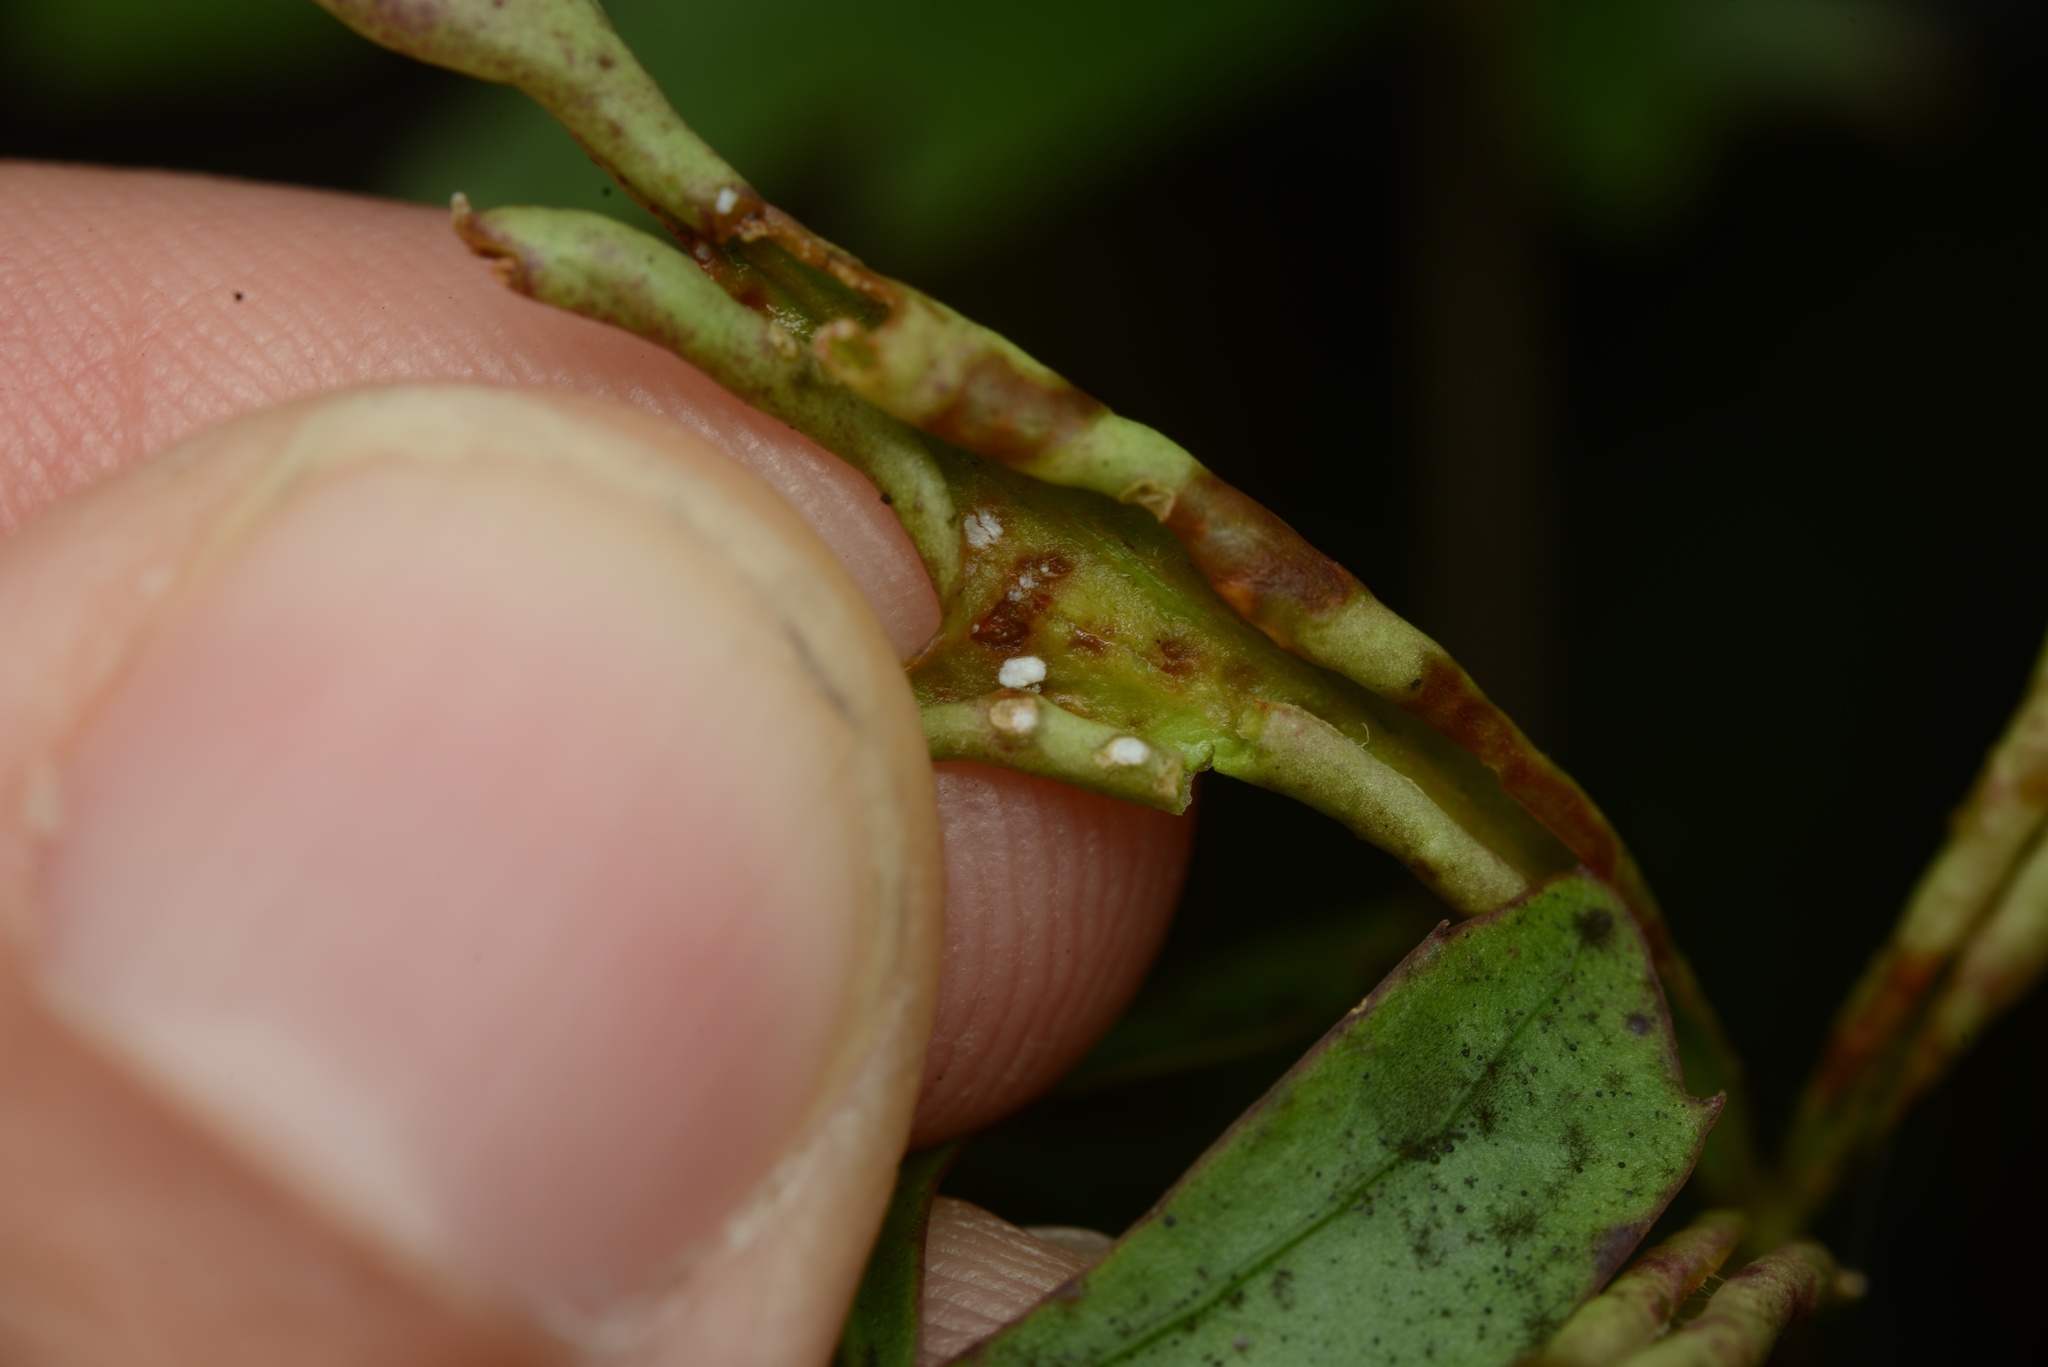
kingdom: Plantae
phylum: Tracheophyta
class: Magnoliopsida
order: Apiales
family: Araliaceae
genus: Raukaua
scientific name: Raukaua simplex
